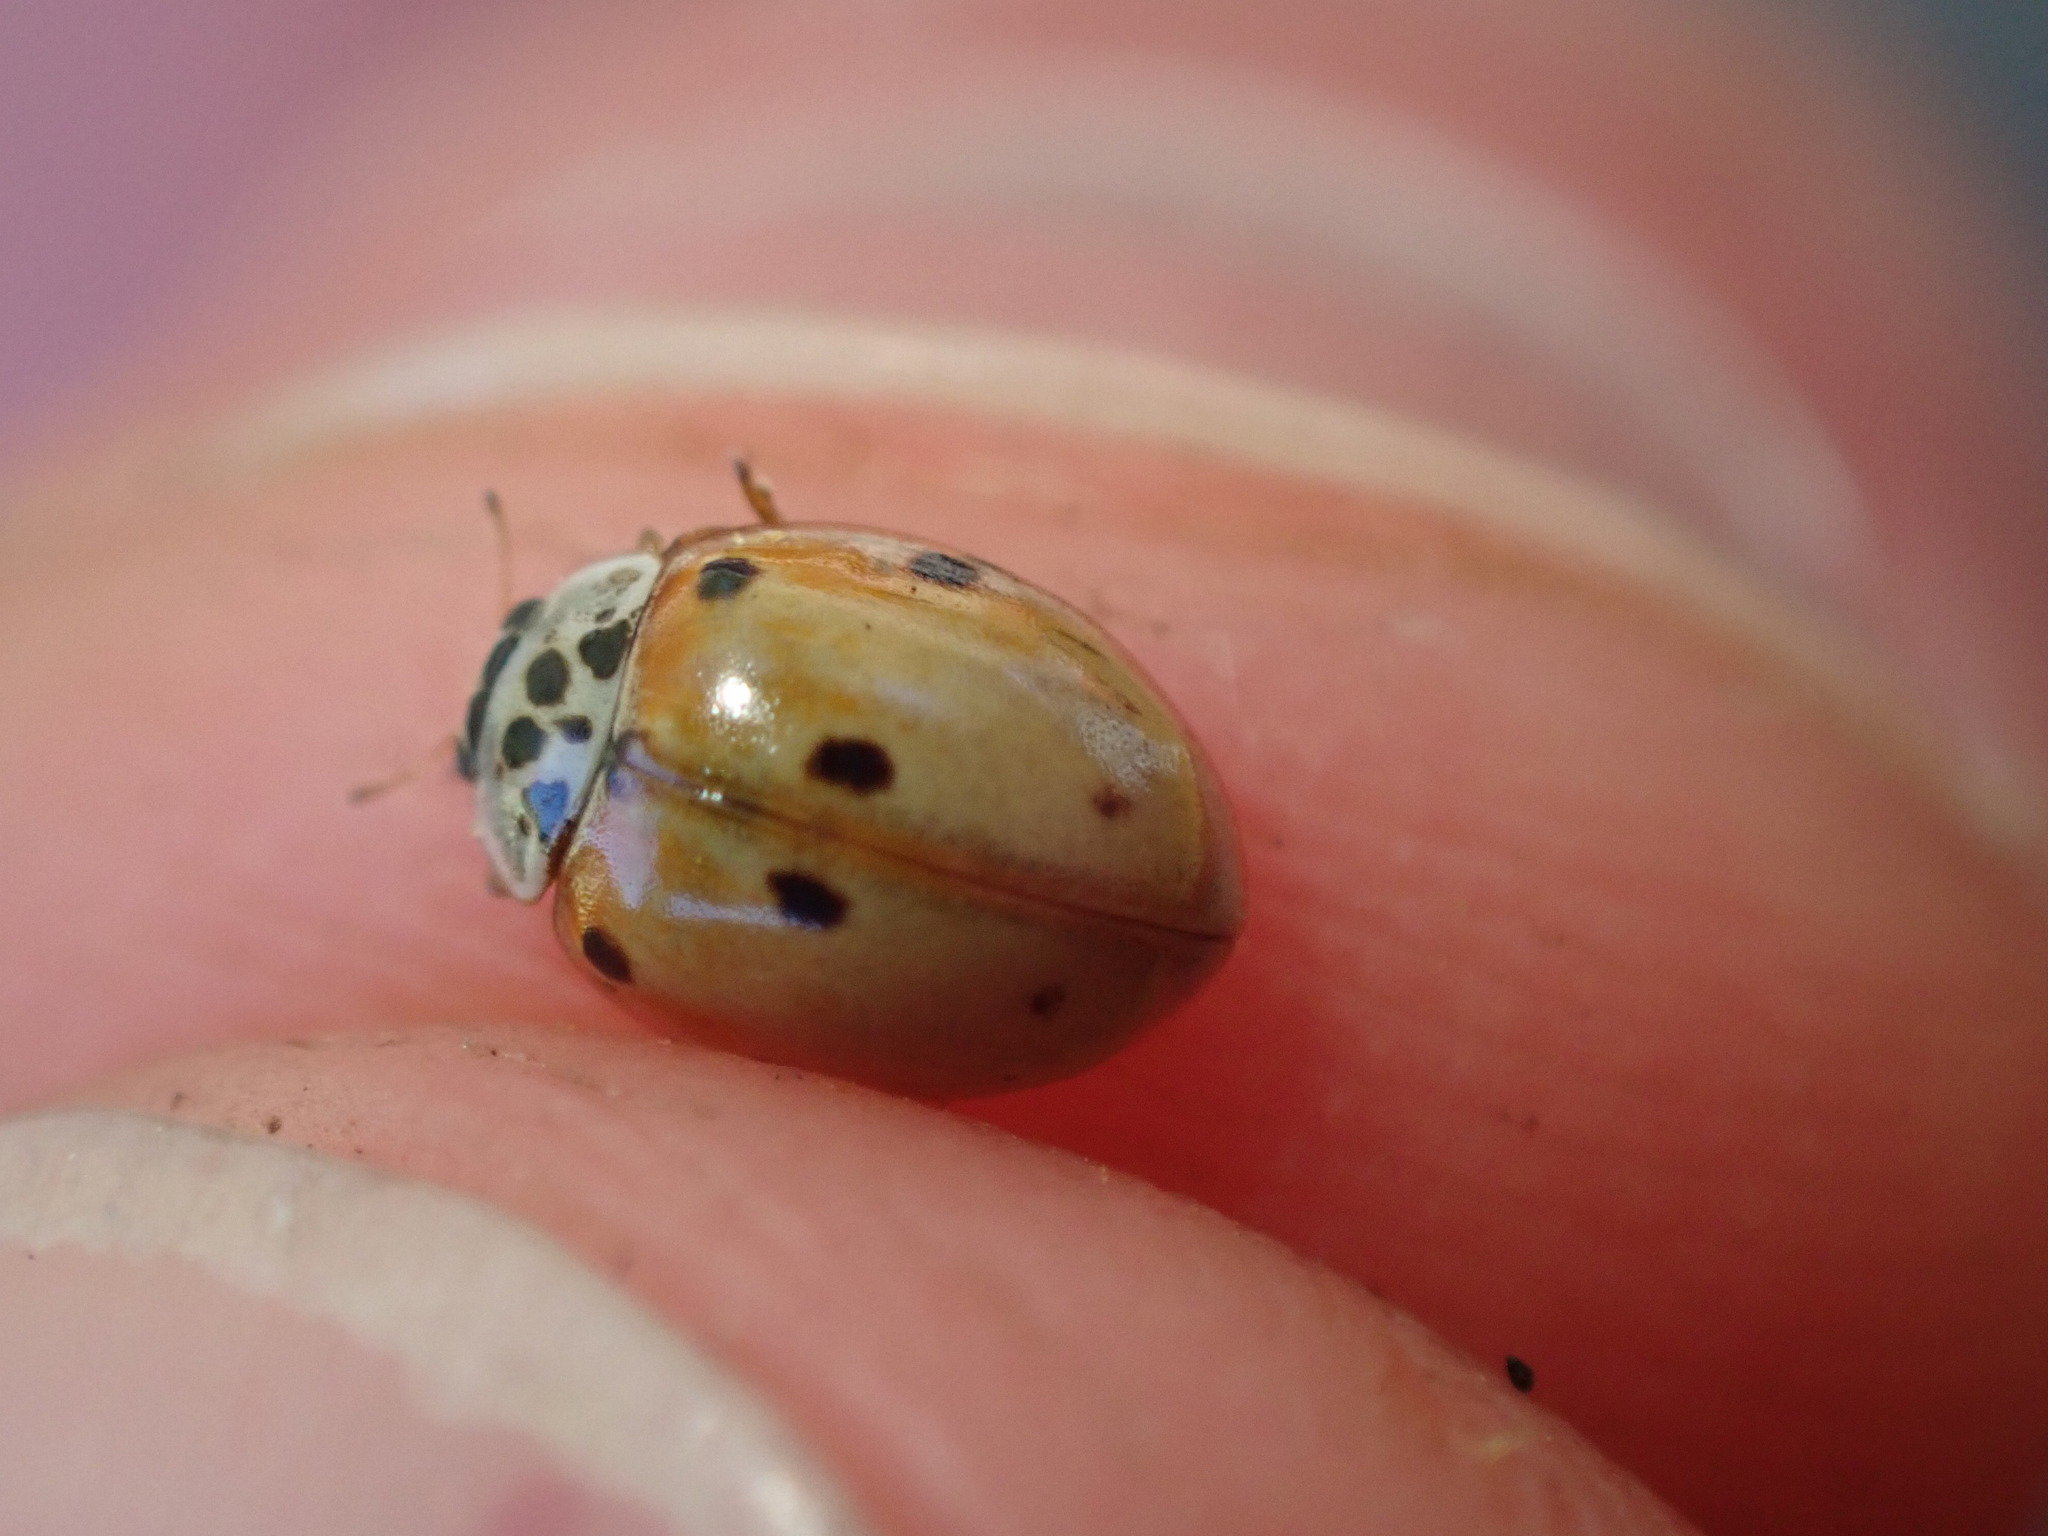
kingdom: Animalia
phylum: Arthropoda
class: Insecta
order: Coleoptera
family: Coccinellidae
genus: Adalia
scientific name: Adalia decempunctata
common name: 10-spot ladybird
